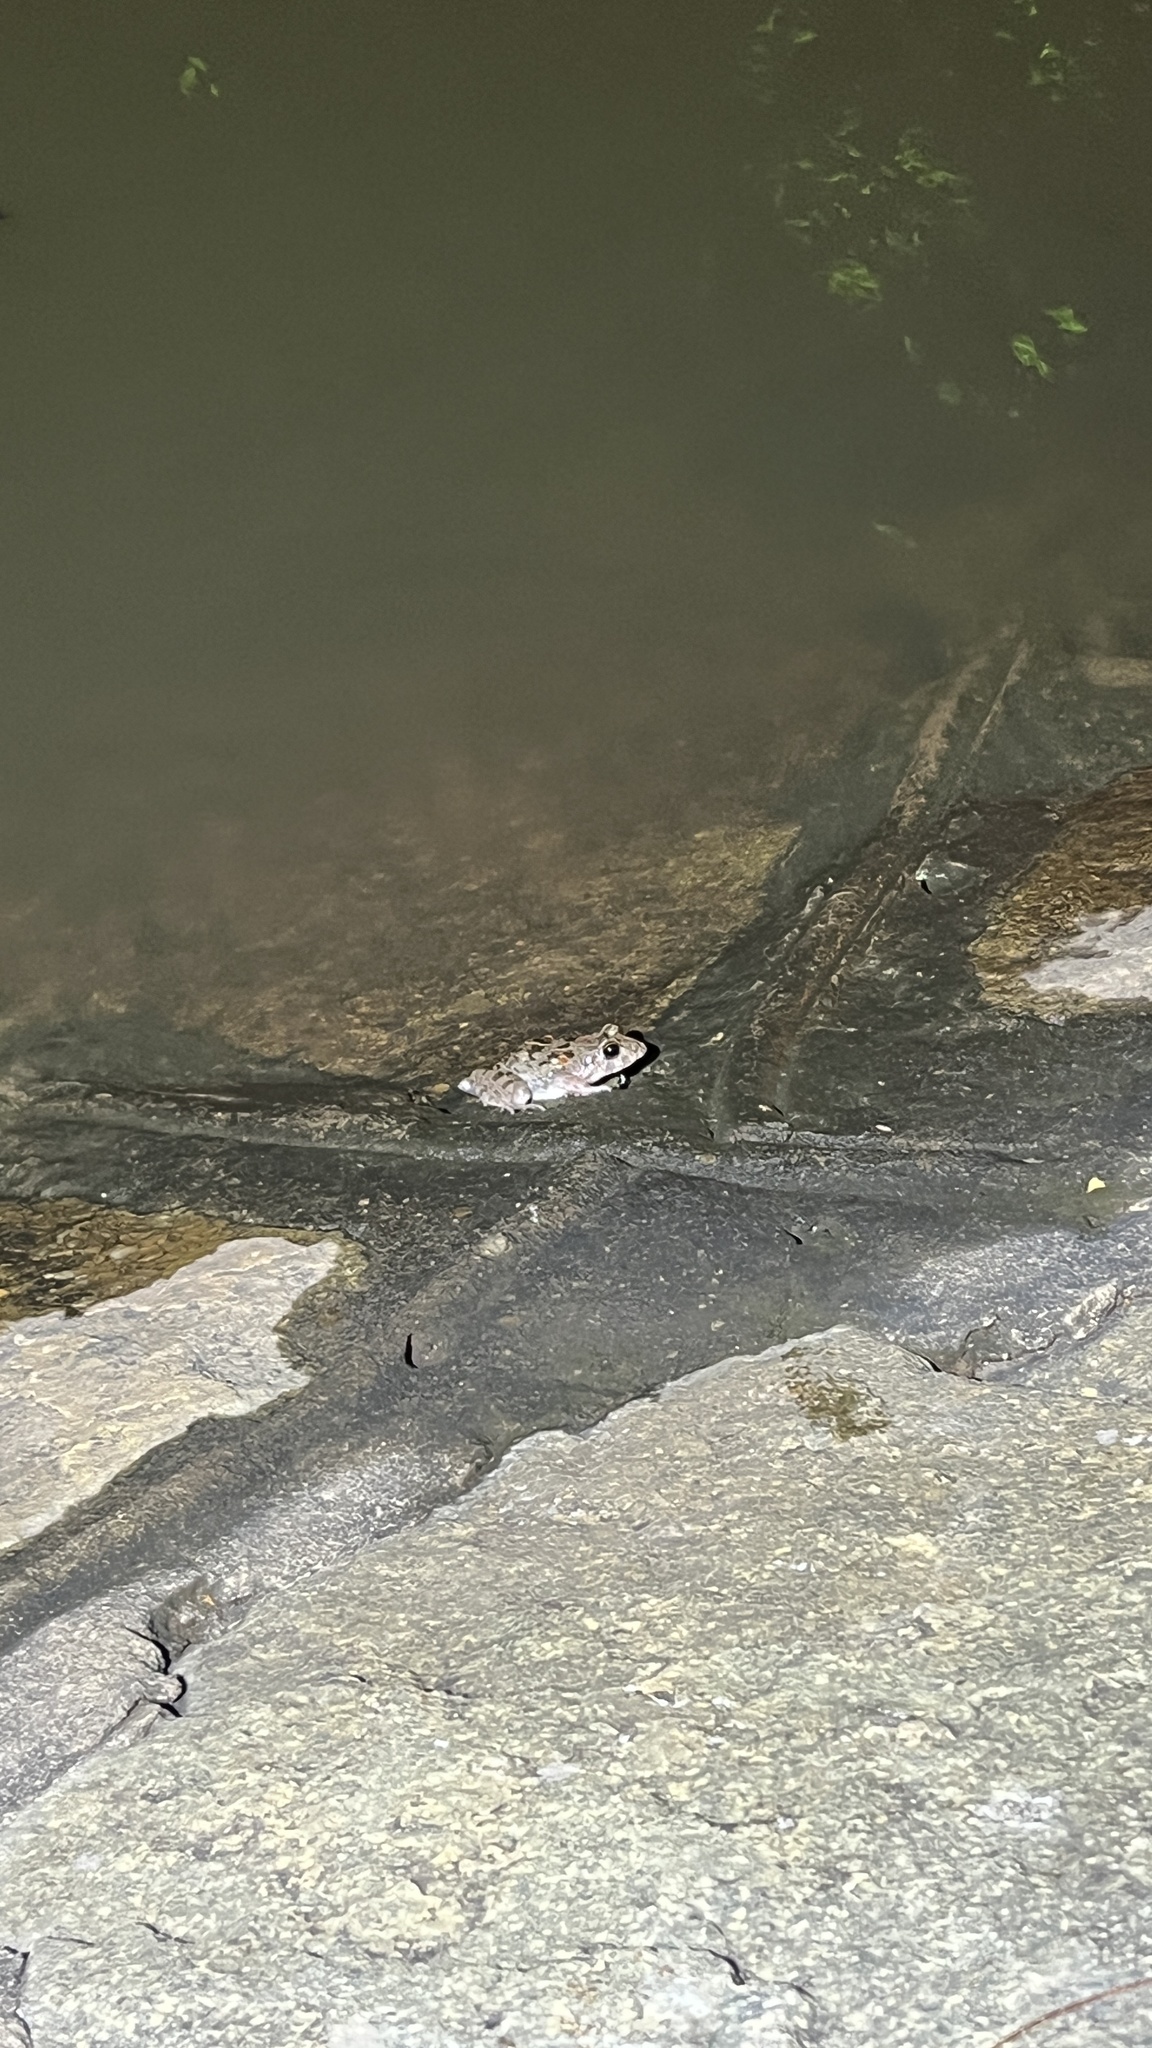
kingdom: Animalia
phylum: Chordata
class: Amphibia
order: Anura
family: Dicroglossidae
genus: Fejervarya
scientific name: Fejervarya limnocharis
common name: Asian grass frog/common pond frog/field frog/grass frog/indian rice frog
